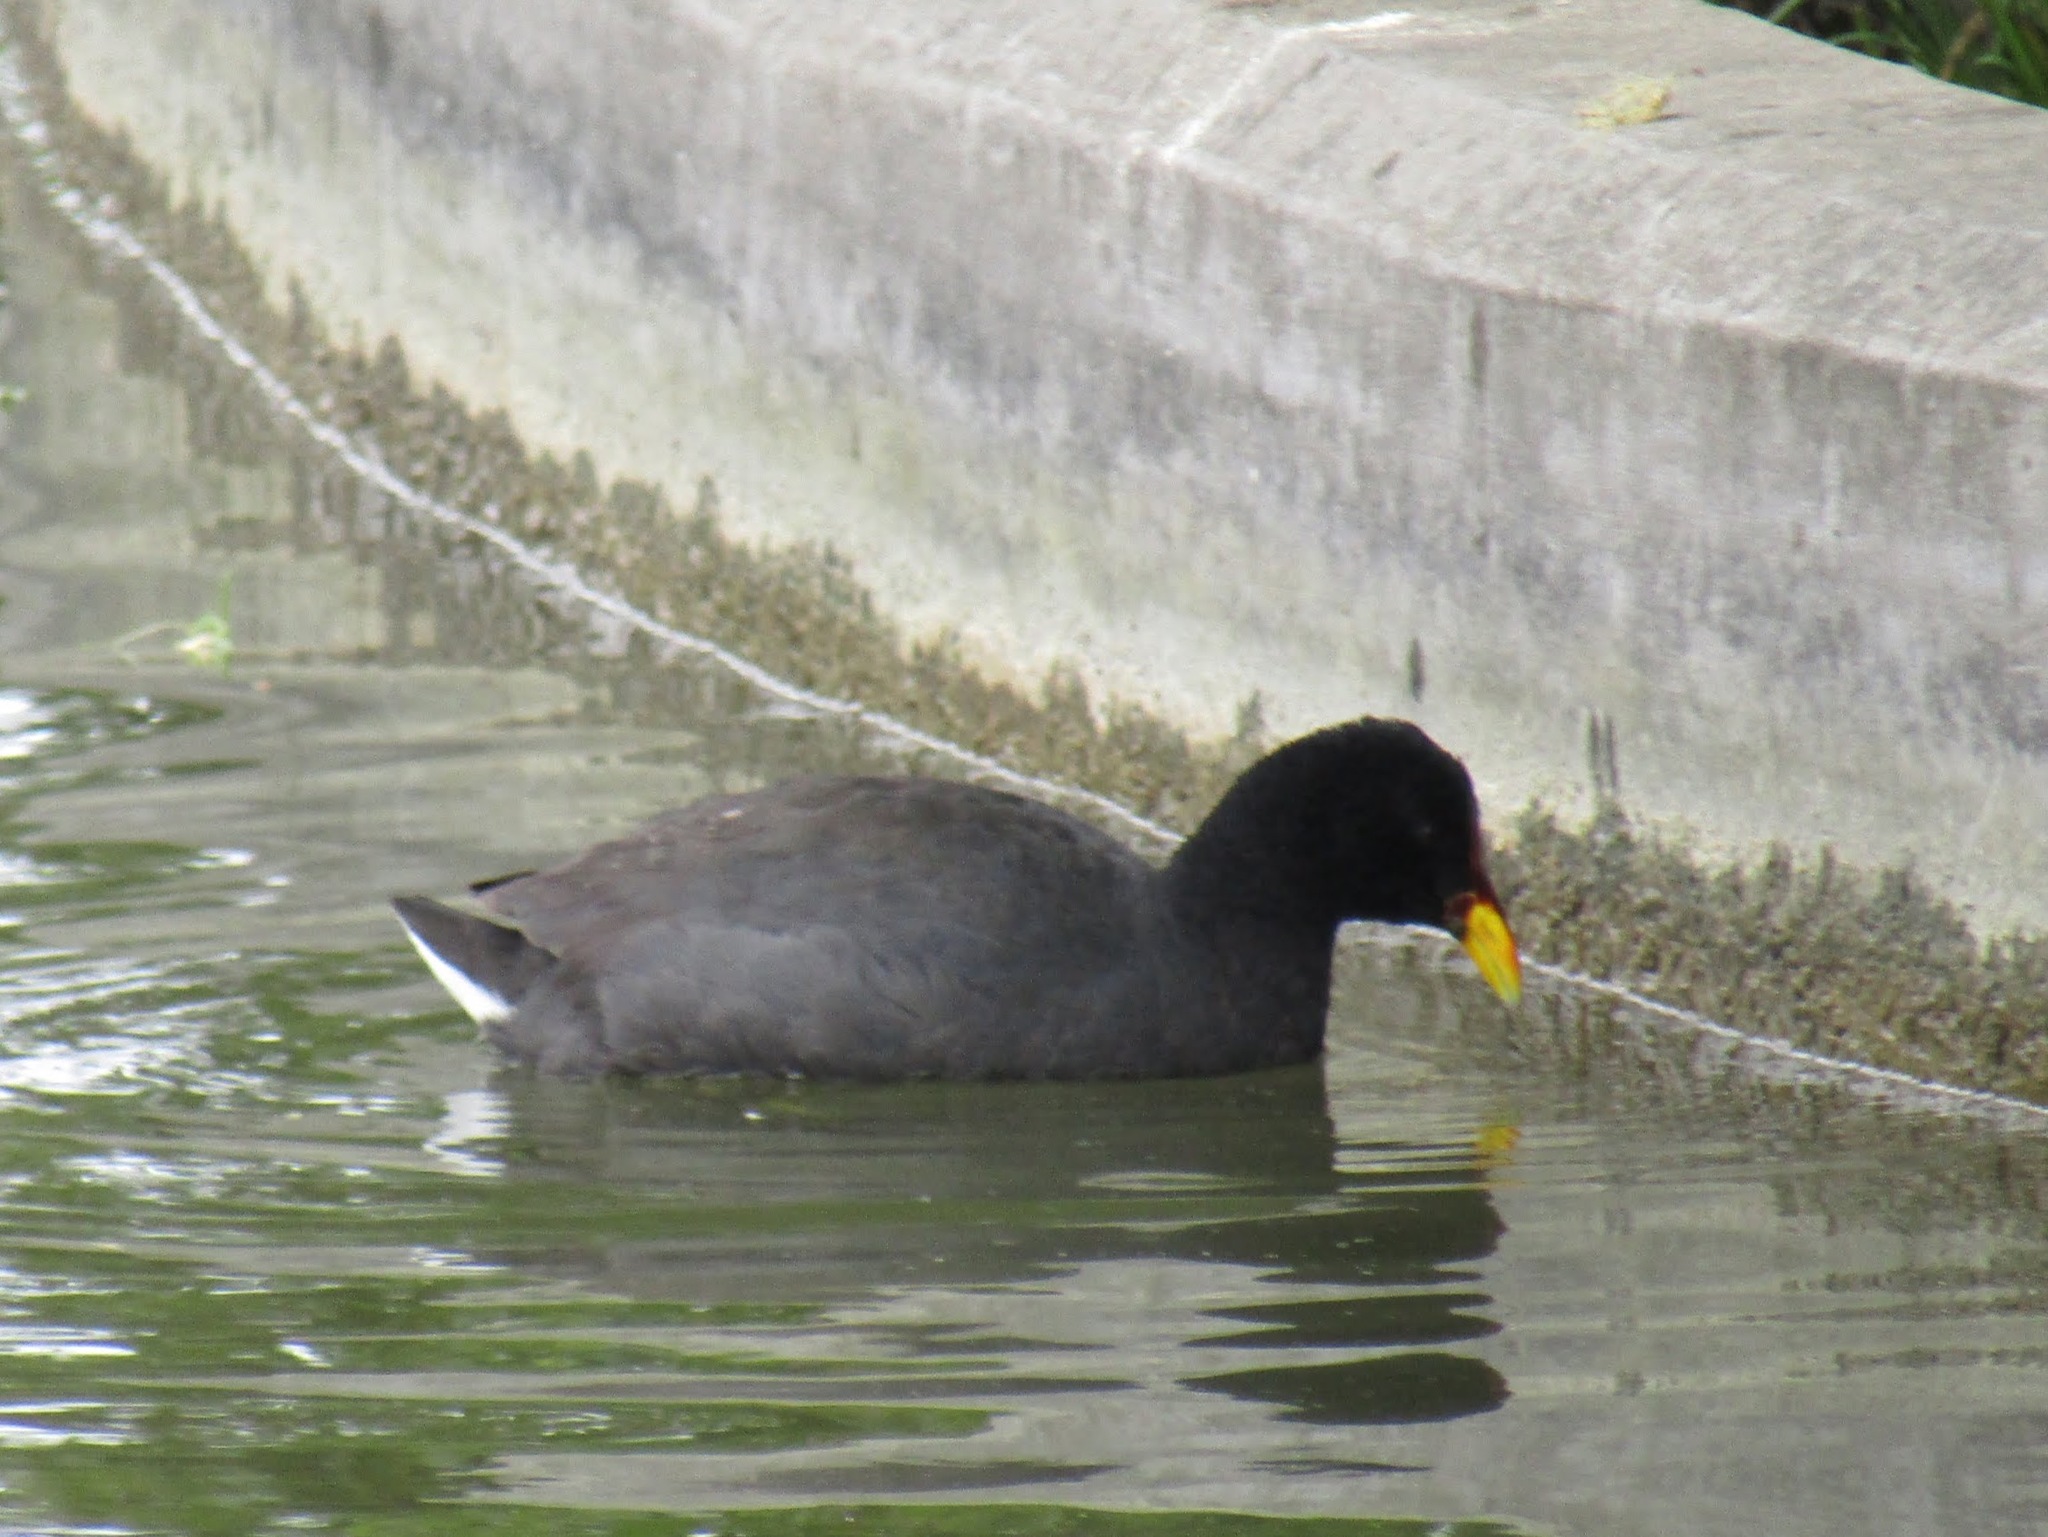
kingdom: Animalia
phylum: Chordata
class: Aves
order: Gruiformes
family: Rallidae
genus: Fulica
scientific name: Fulica rufifrons
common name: Red-fronted coot
